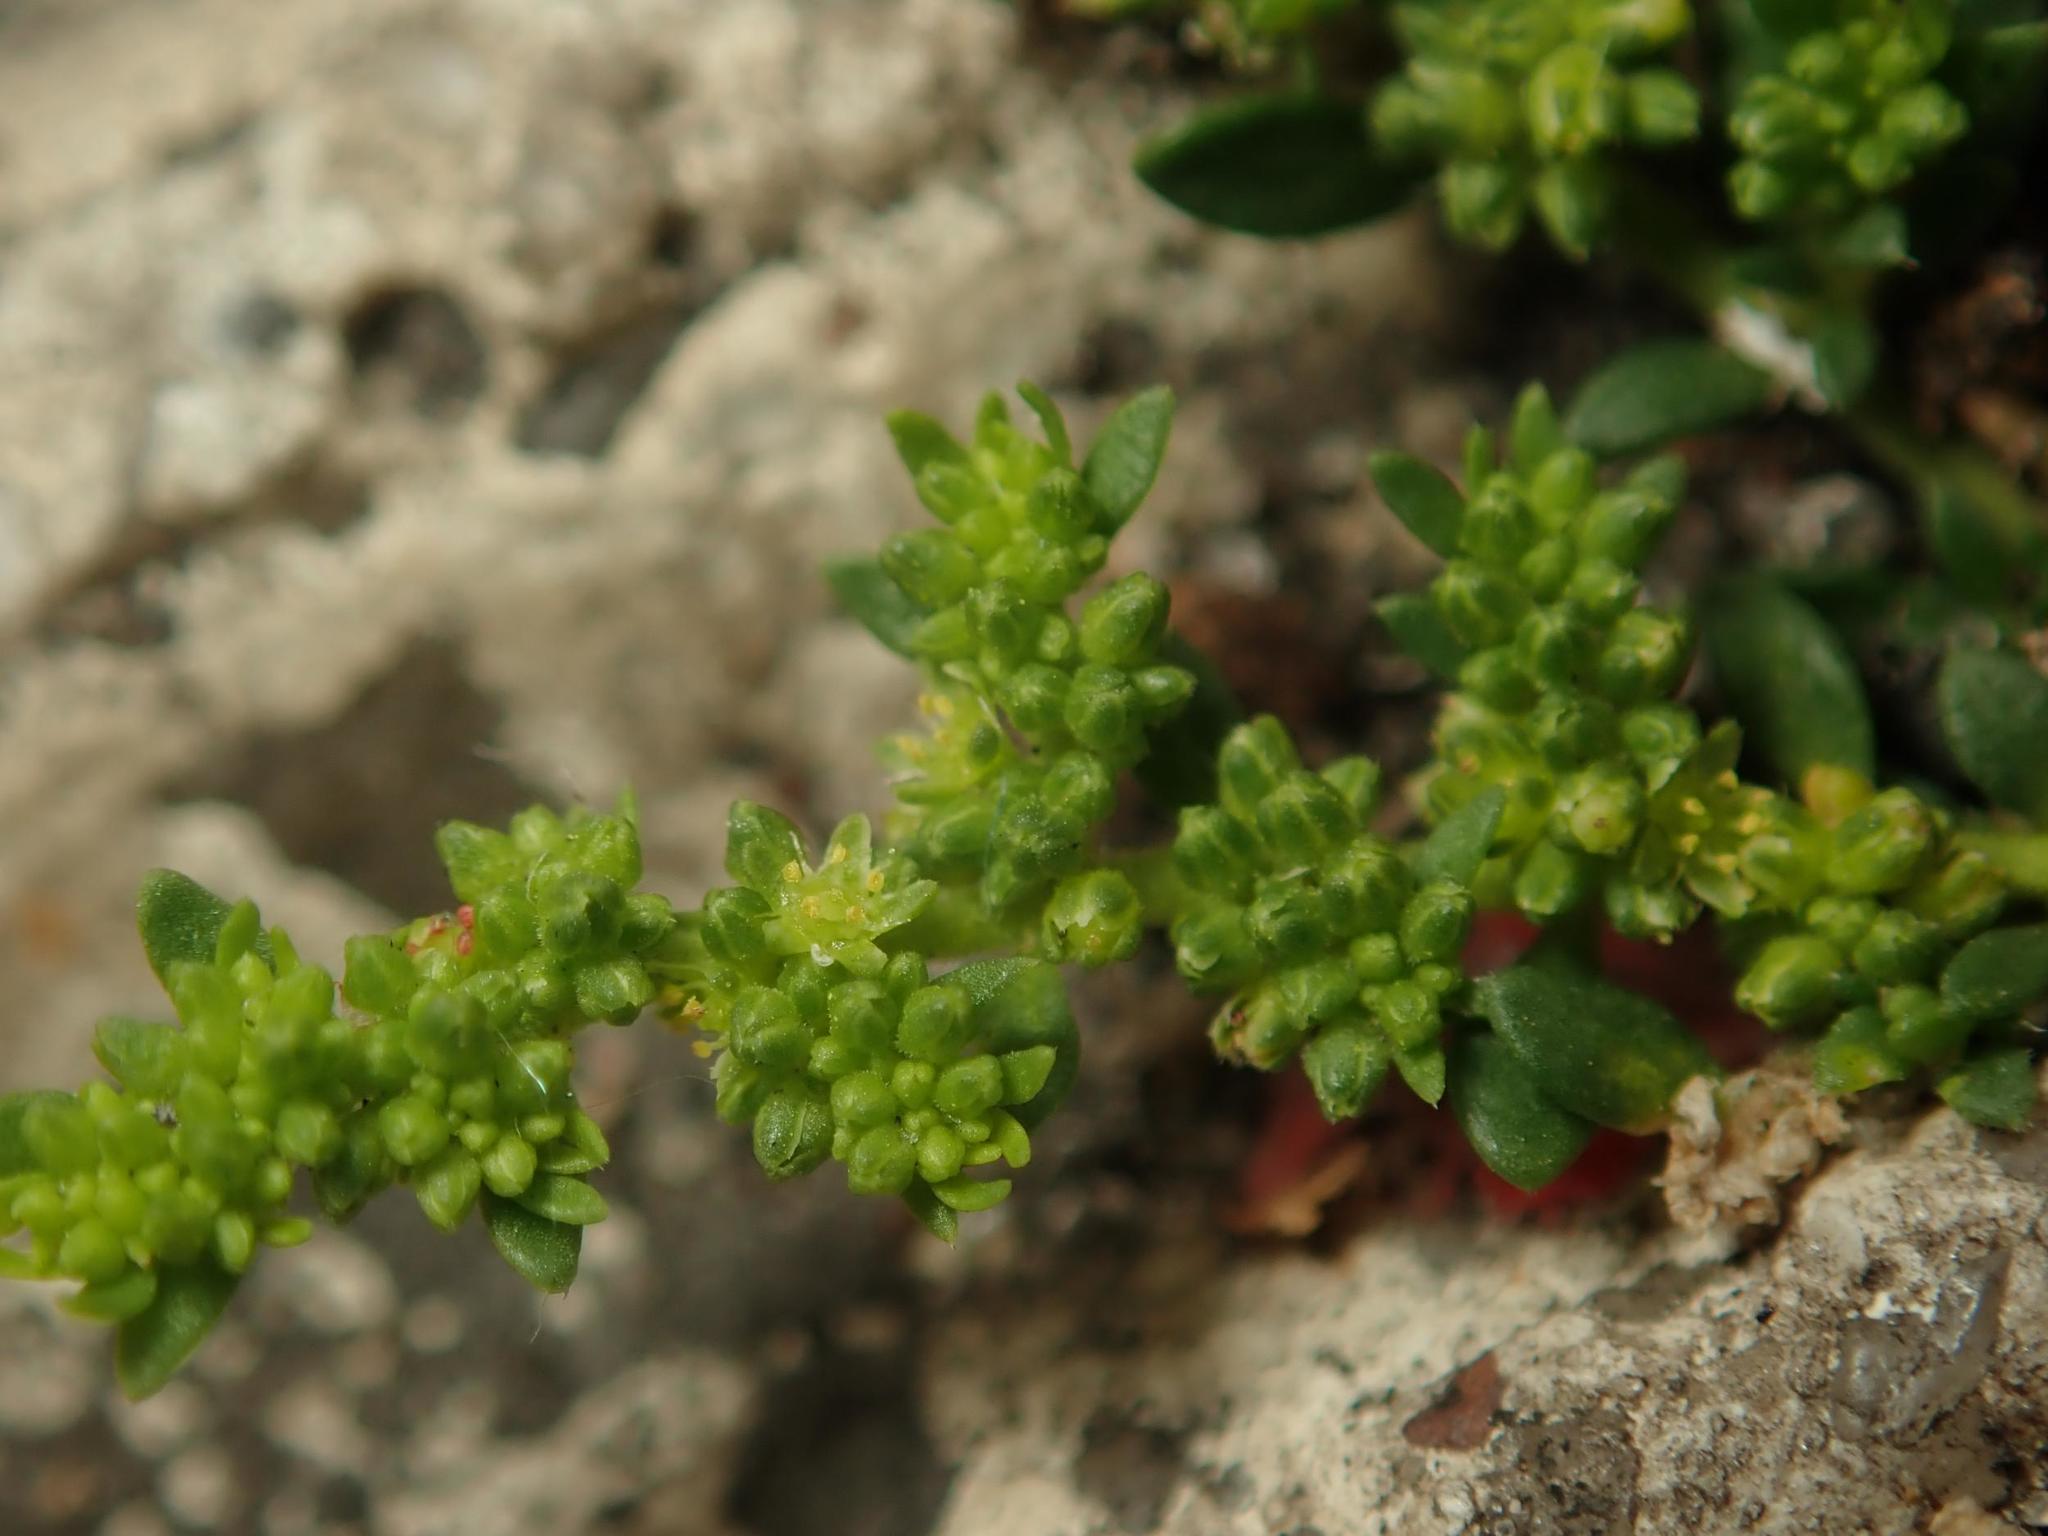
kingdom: Plantae
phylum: Tracheophyta
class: Magnoliopsida
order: Caryophyllales
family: Caryophyllaceae
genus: Herniaria
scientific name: Herniaria glabra
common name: Smooth rupturewort
